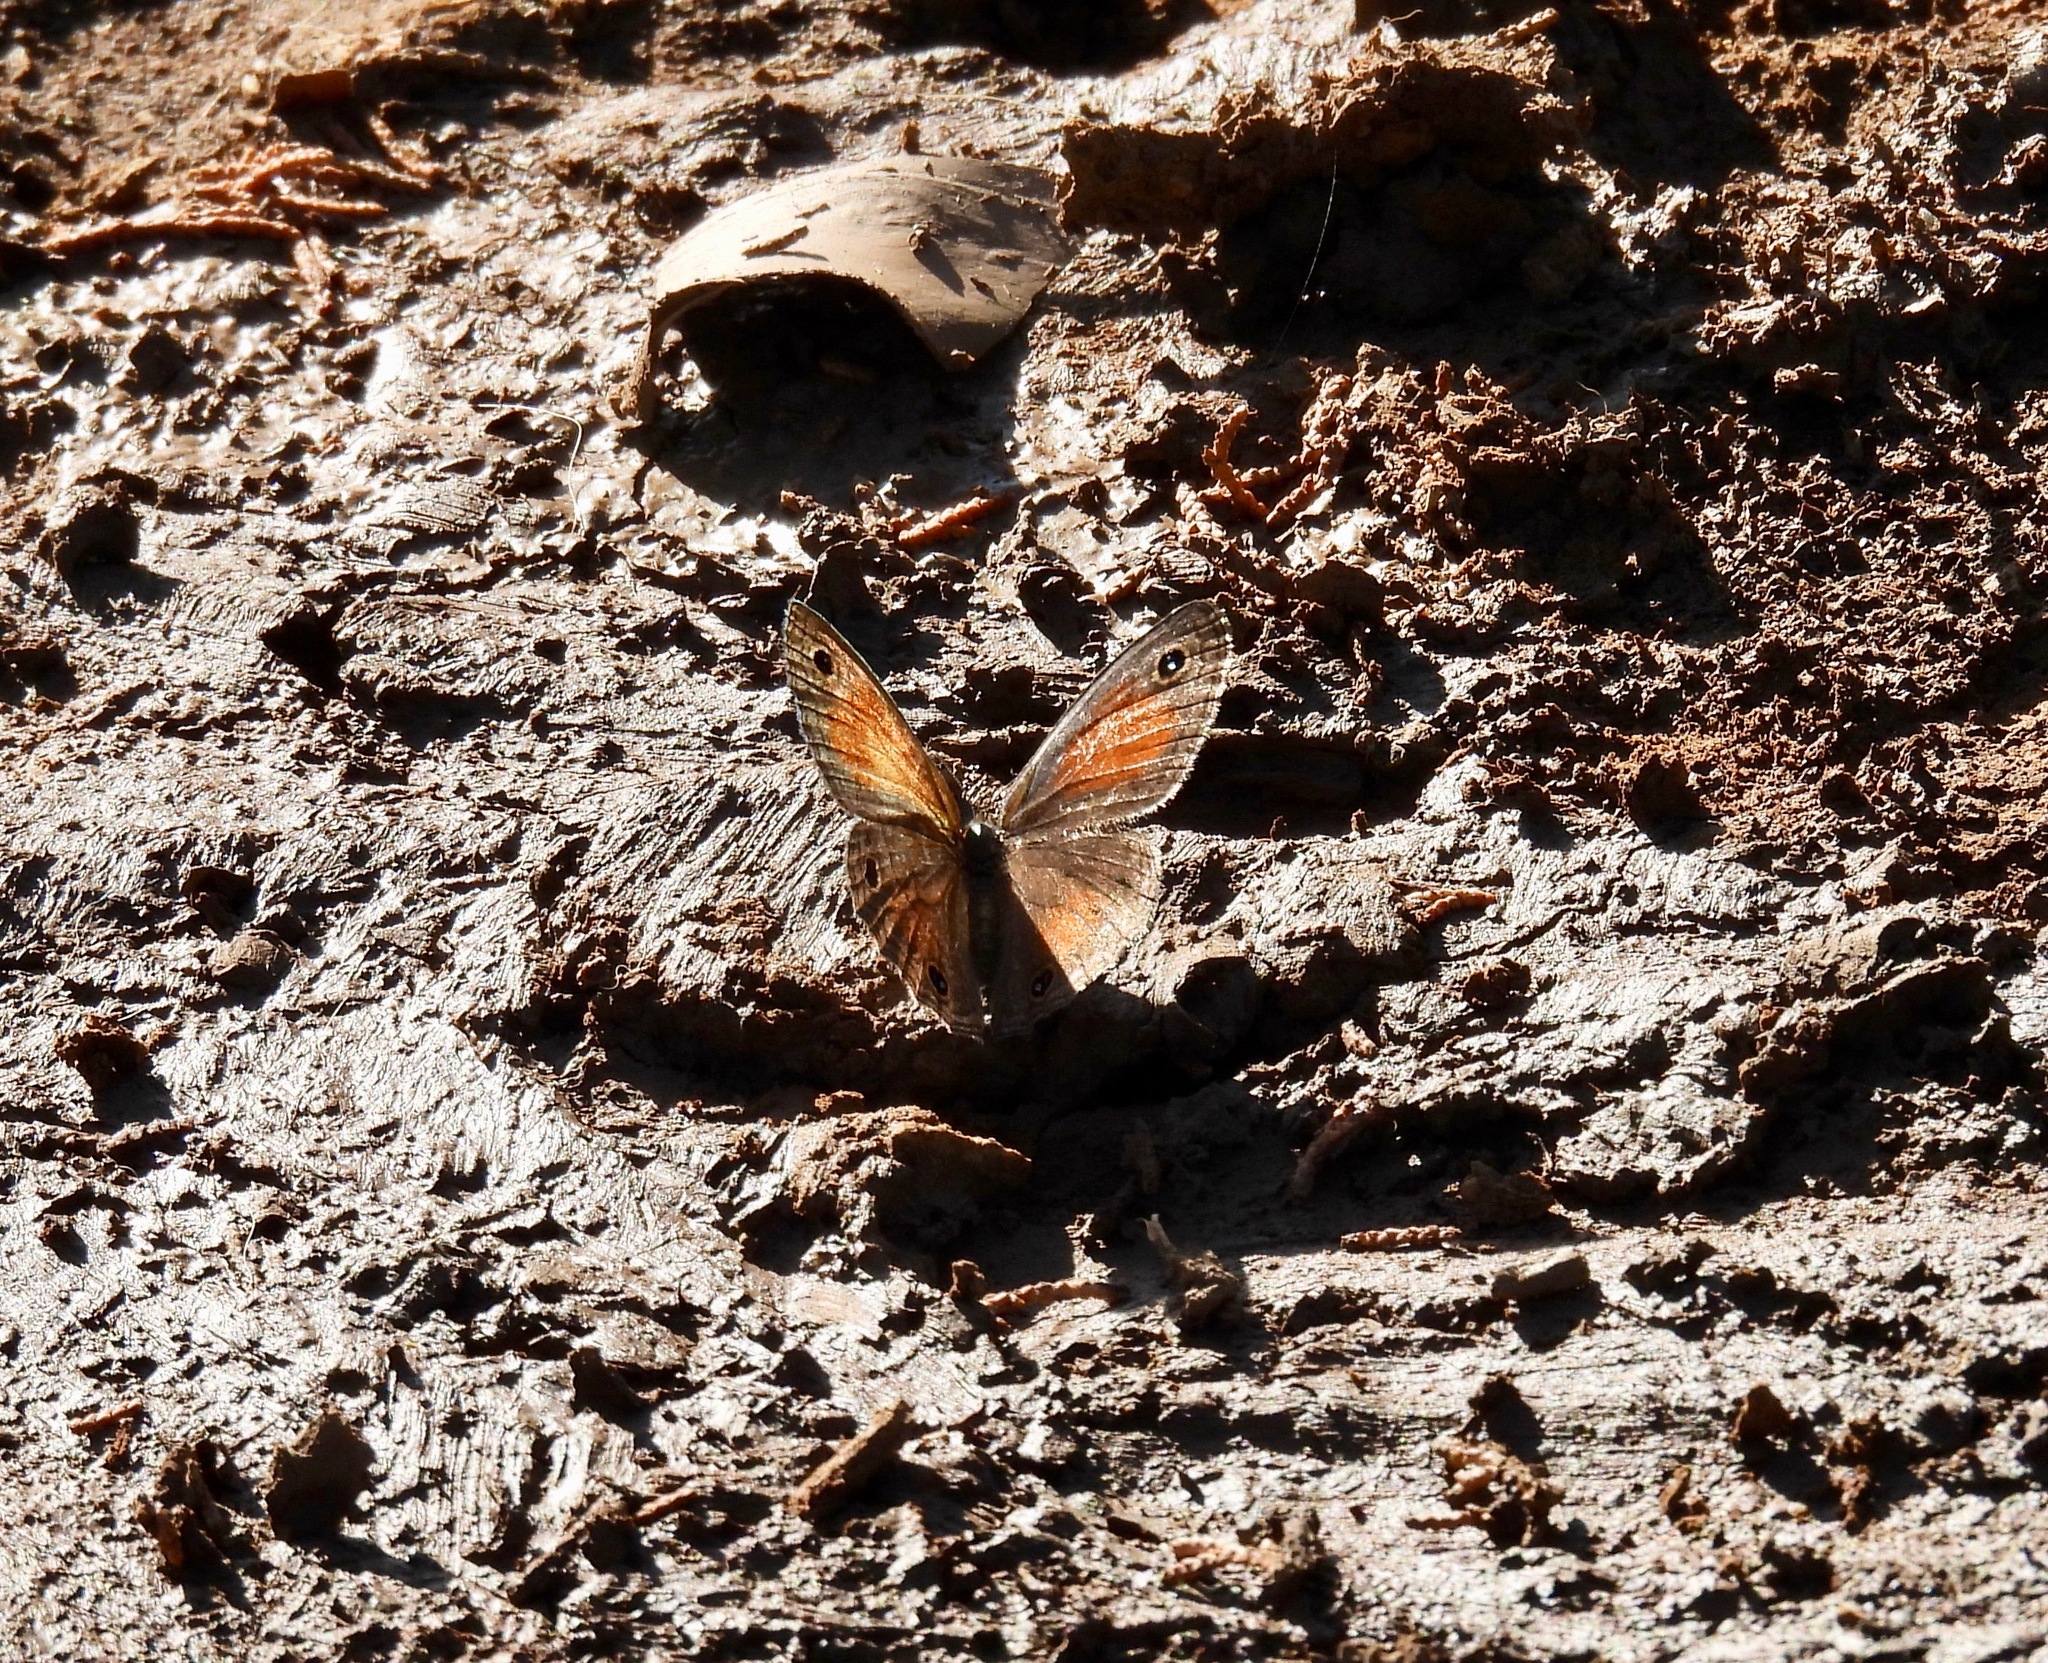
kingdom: Animalia
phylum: Arthropoda
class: Insecta
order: Lepidoptera
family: Nymphalidae
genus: Euptychia
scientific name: Euptychia Cissia rubricata
